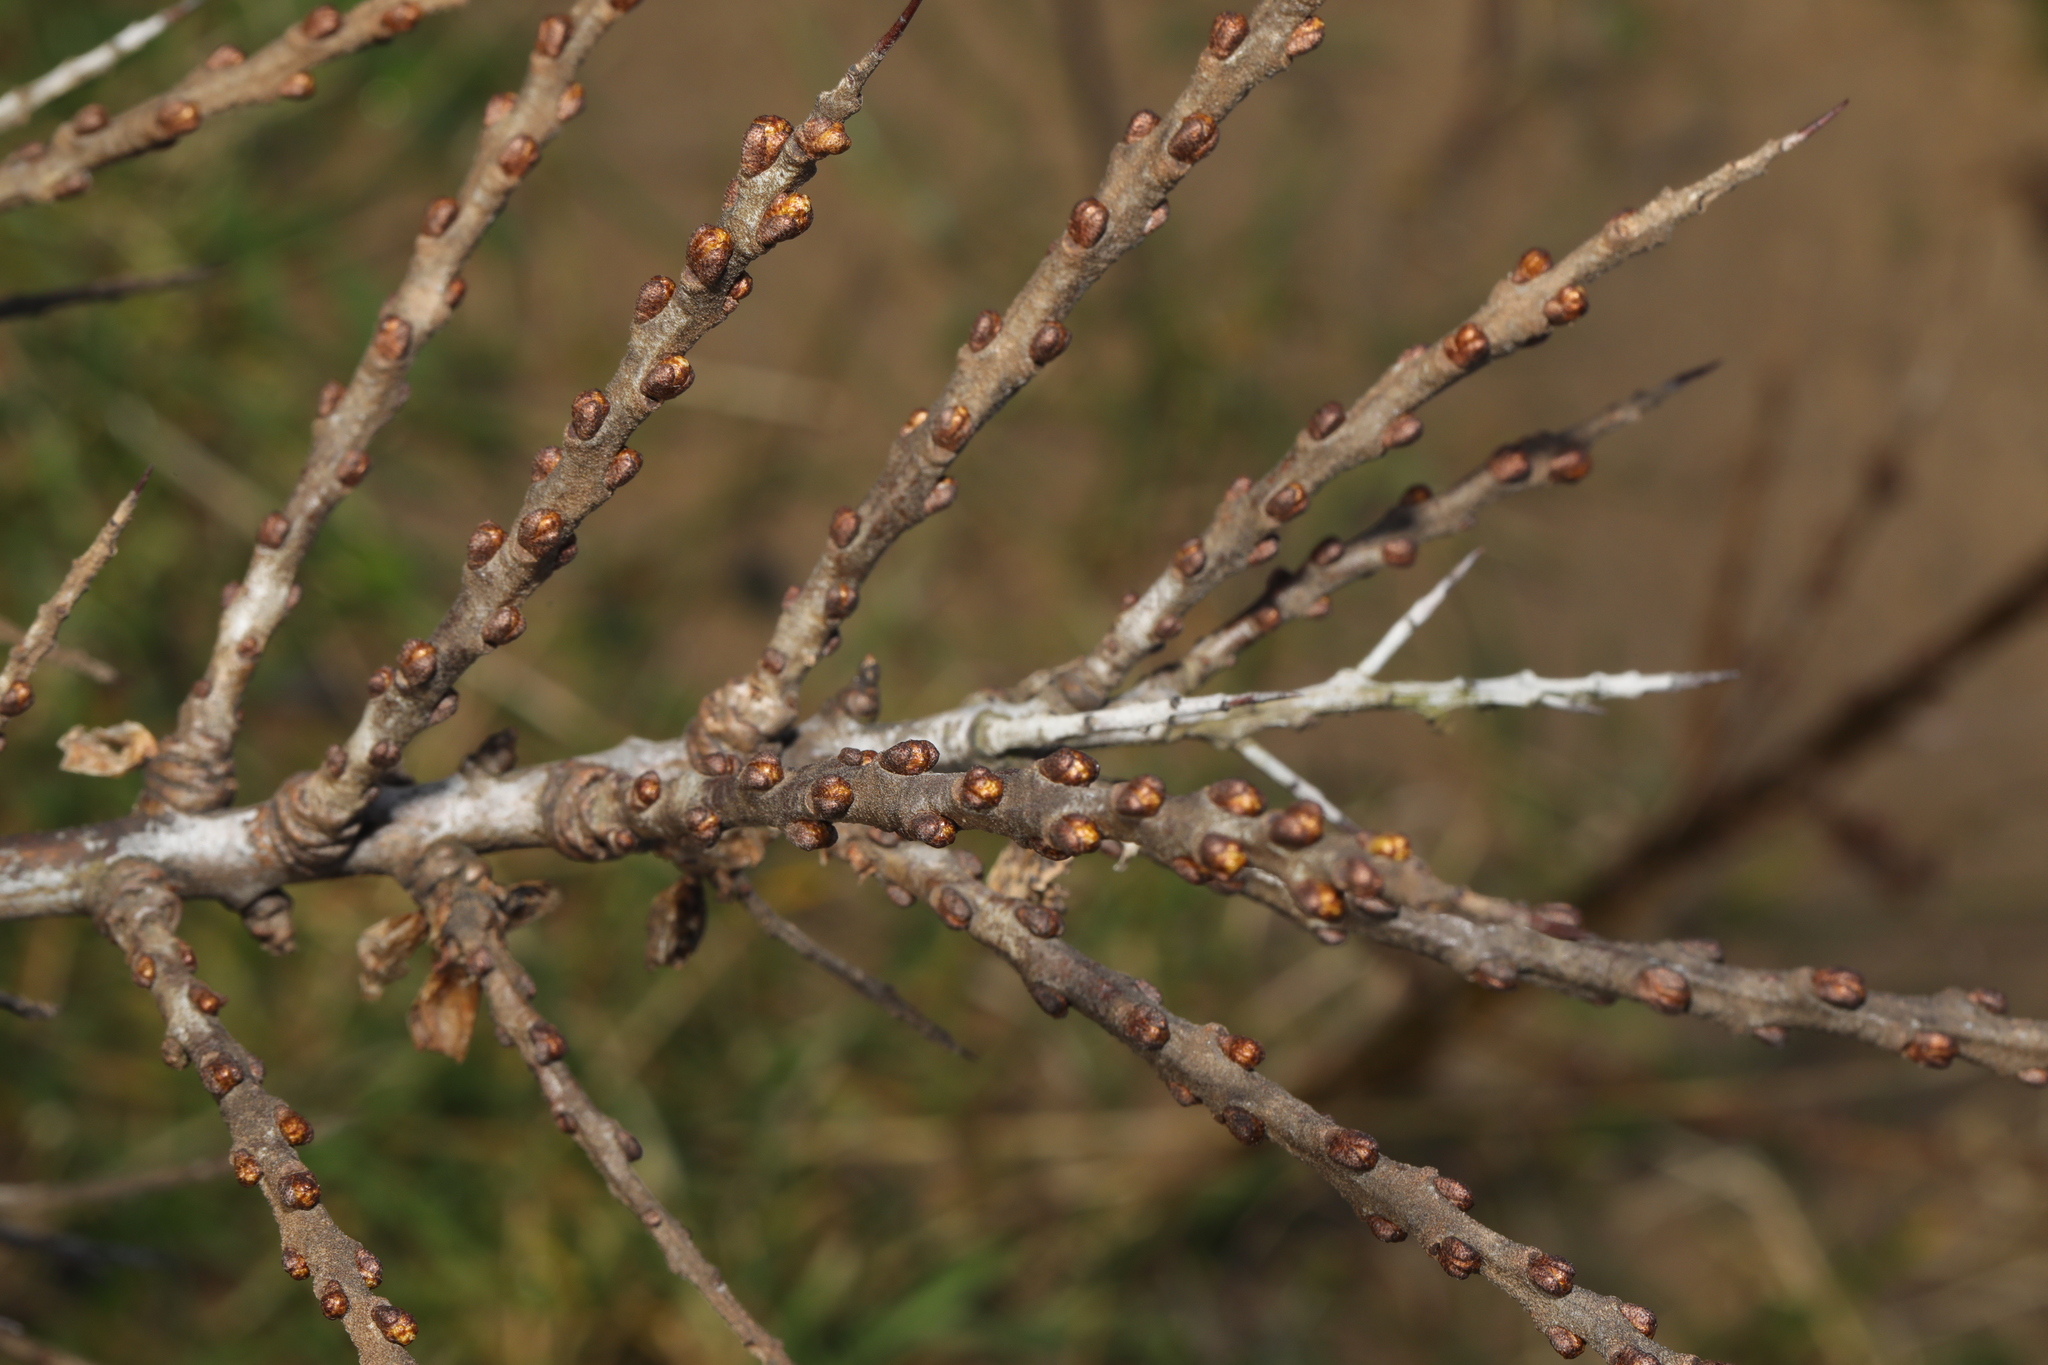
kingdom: Plantae
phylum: Tracheophyta
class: Magnoliopsida
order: Rosales
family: Elaeagnaceae
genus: Hippophae
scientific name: Hippophae rhamnoides
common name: Sea-buckthorn
